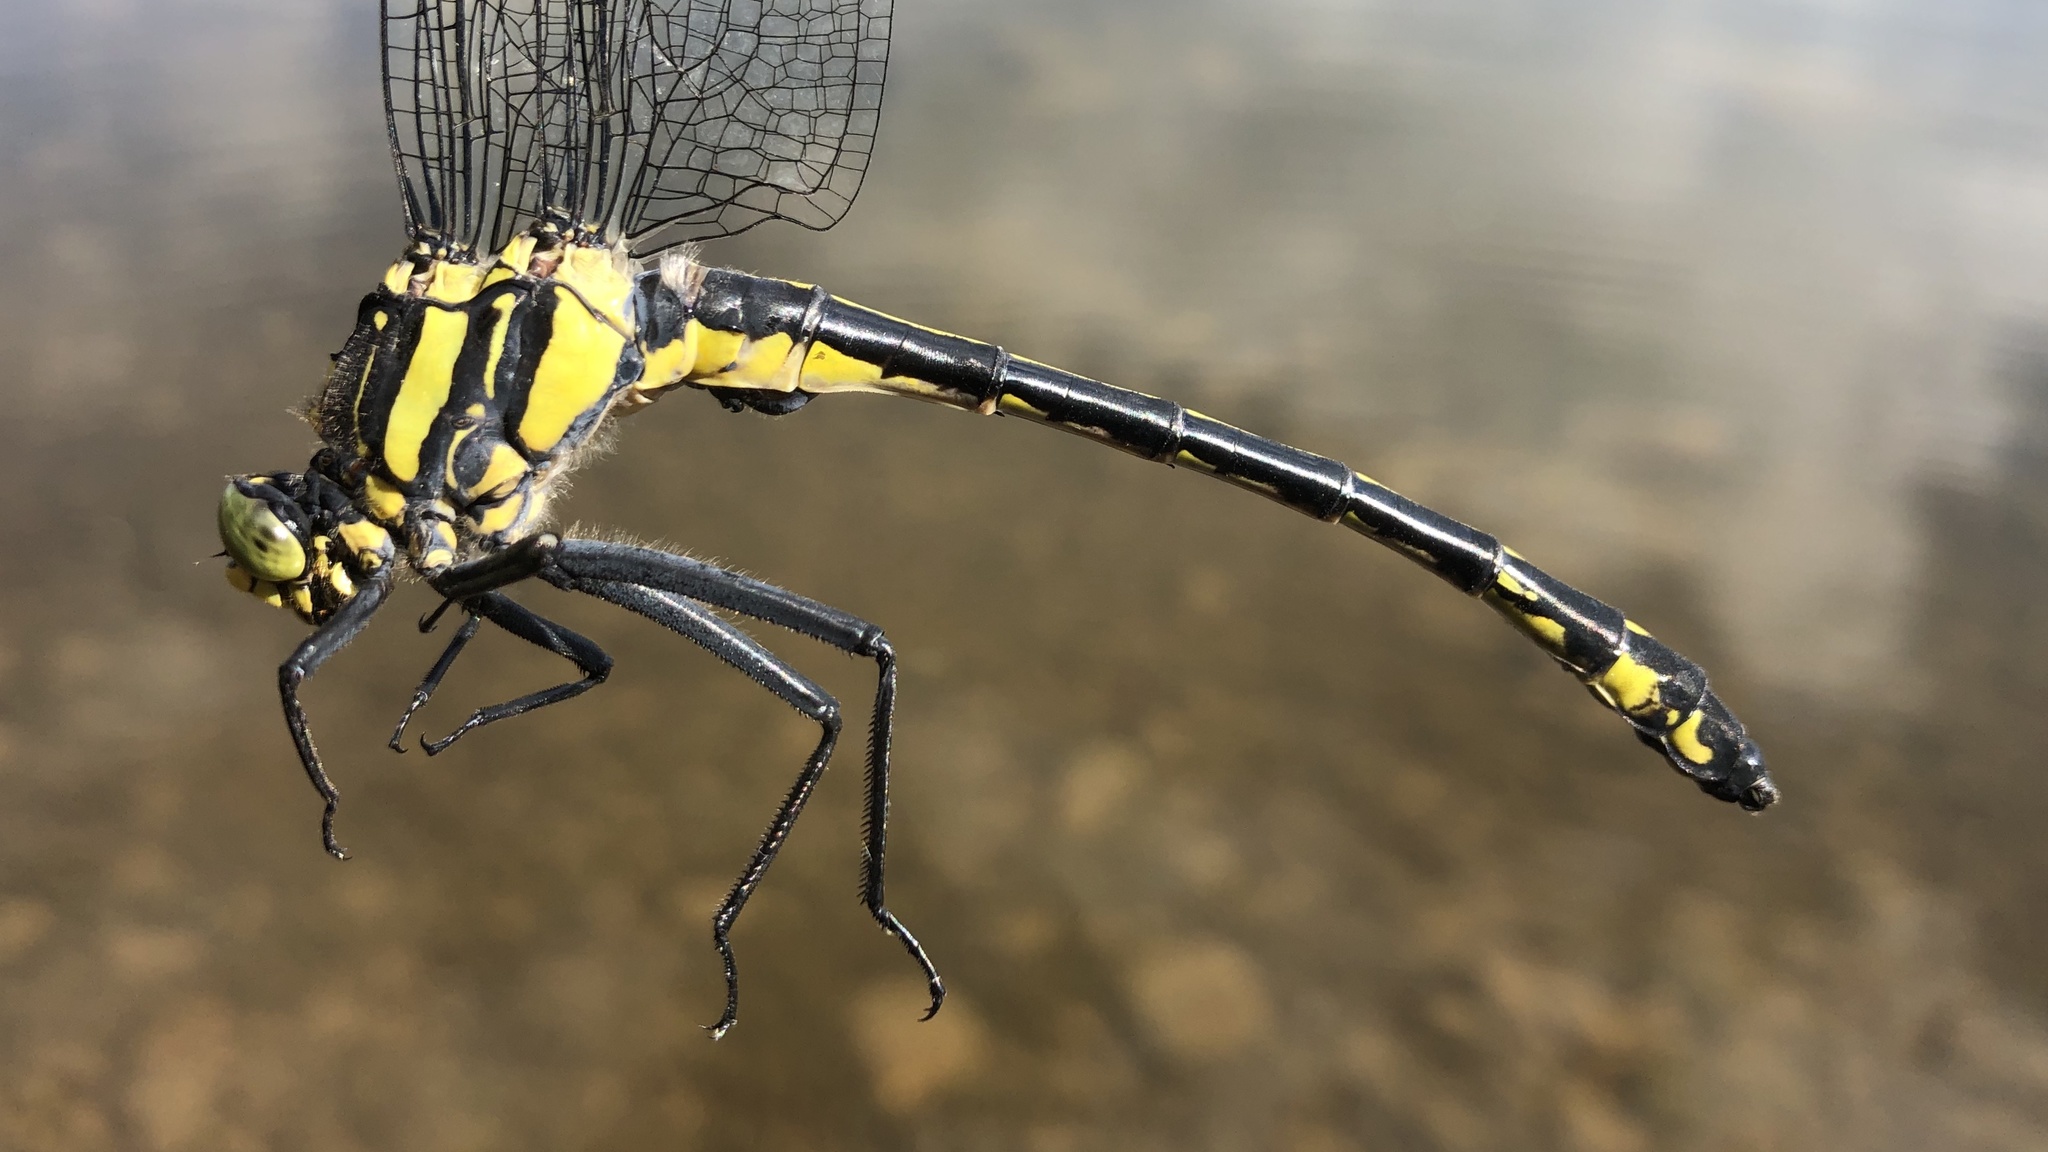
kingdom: Animalia
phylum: Arthropoda
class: Insecta
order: Odonata
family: Gomphidae
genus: Hagenius
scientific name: Hagenius brevistylus
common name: Dragonhunter
